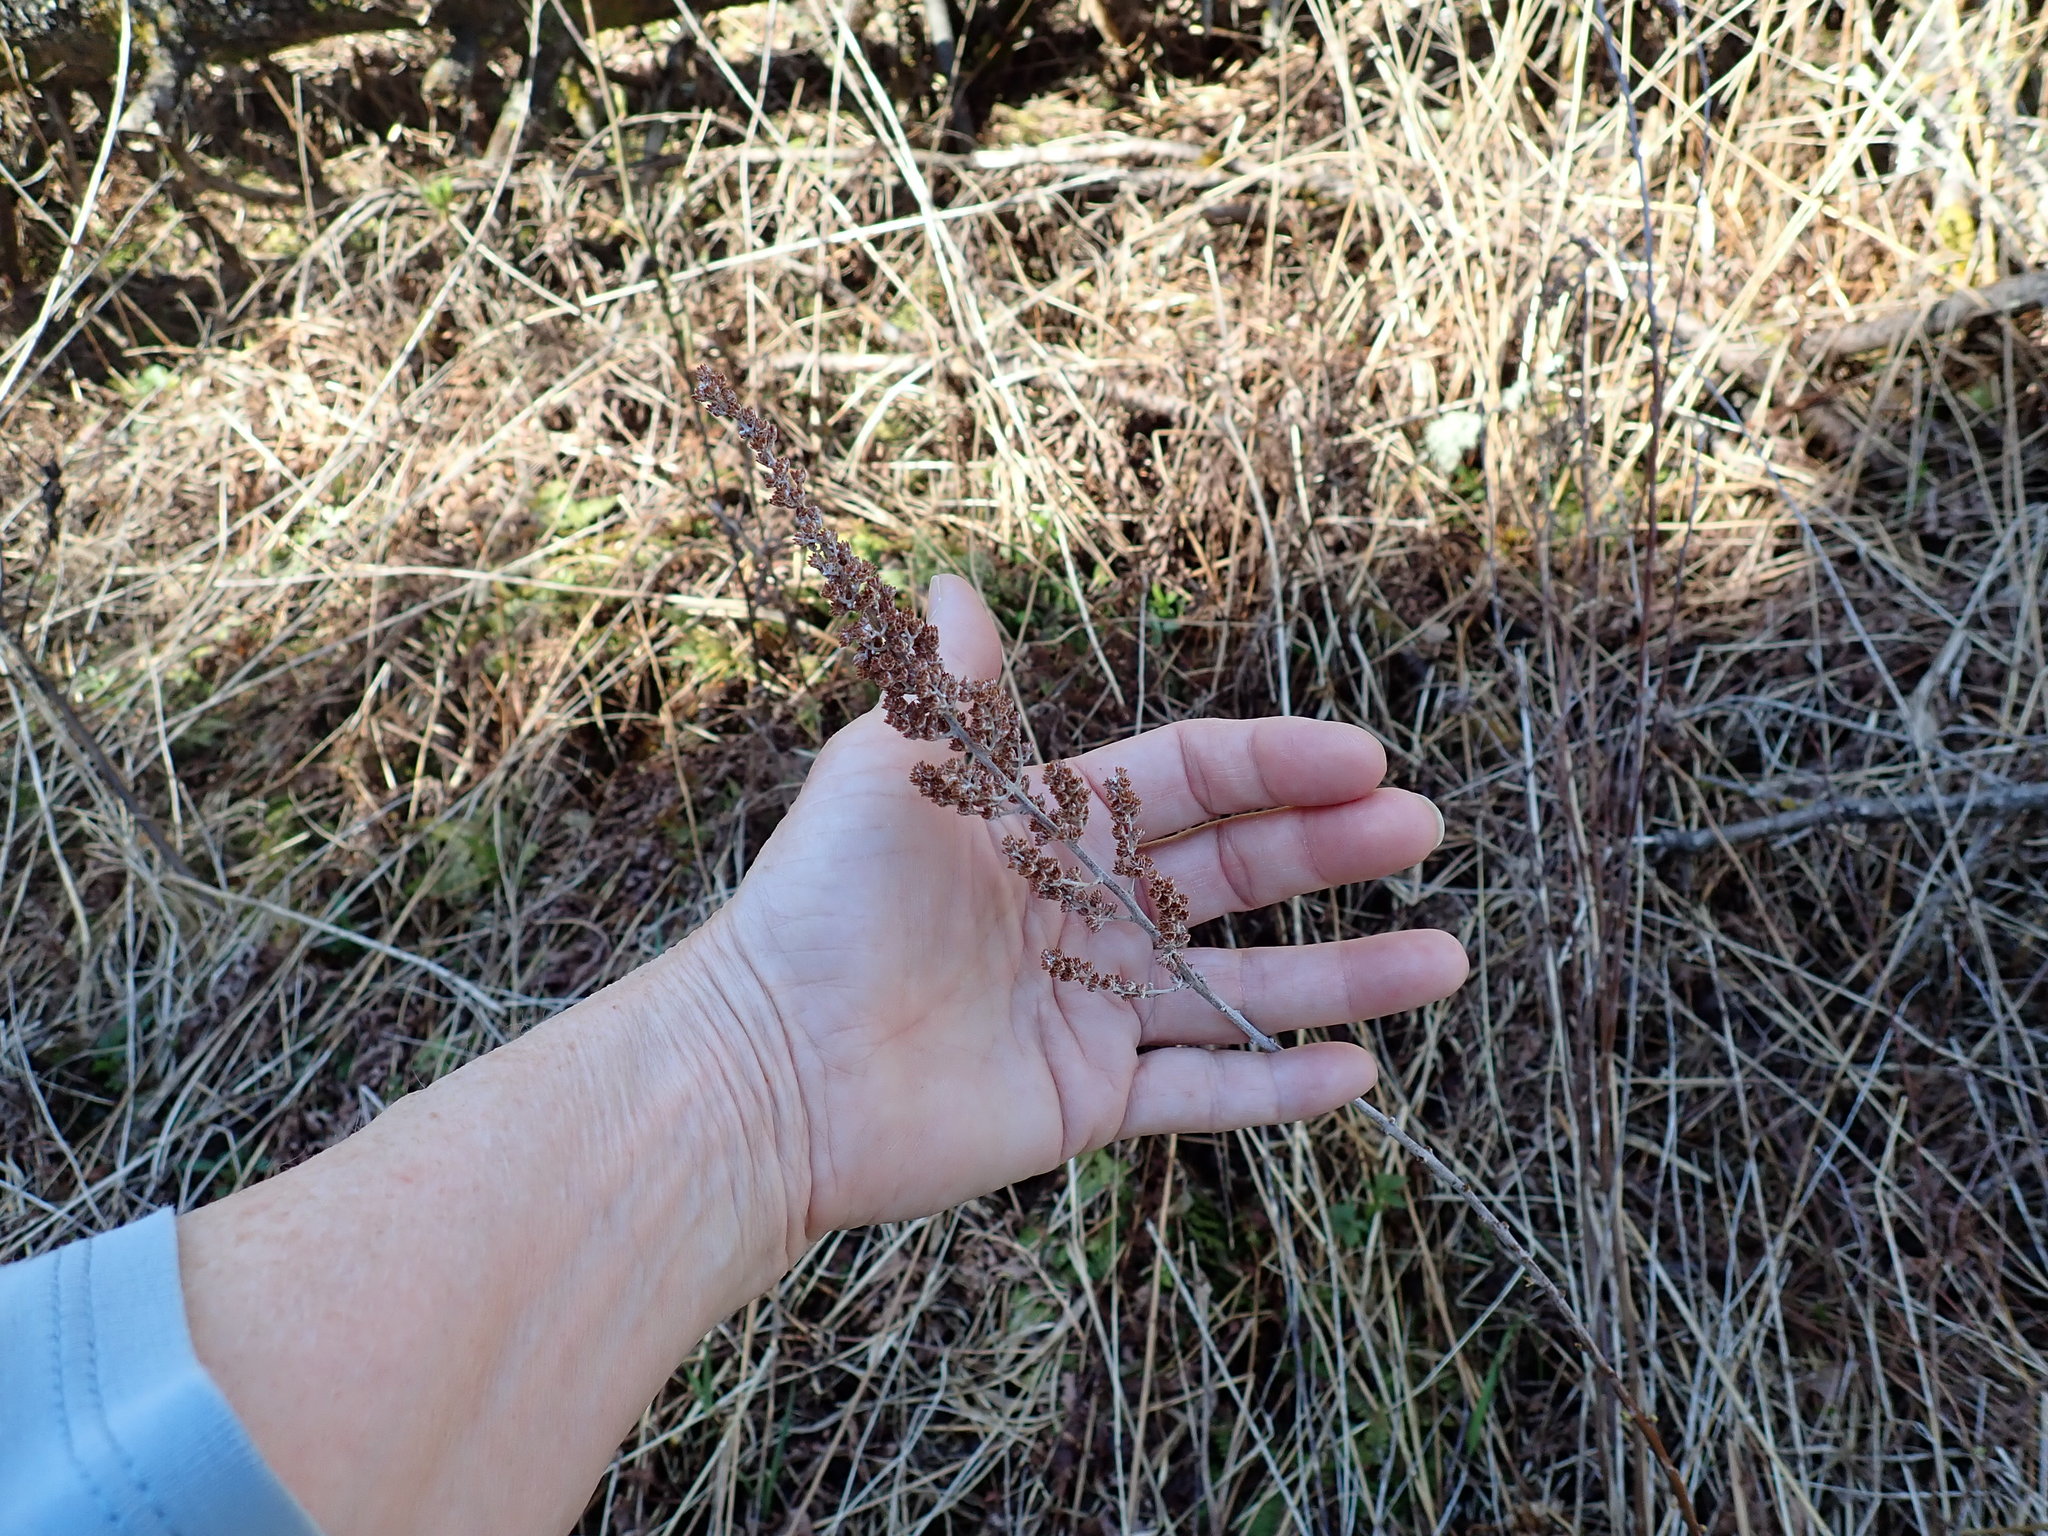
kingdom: Plantae
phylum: Tracheophyta
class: Magnoliopsida
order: Rosales
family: Rosaceae
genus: Spiraea
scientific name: Spiraea tomentosa
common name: Hardhack
